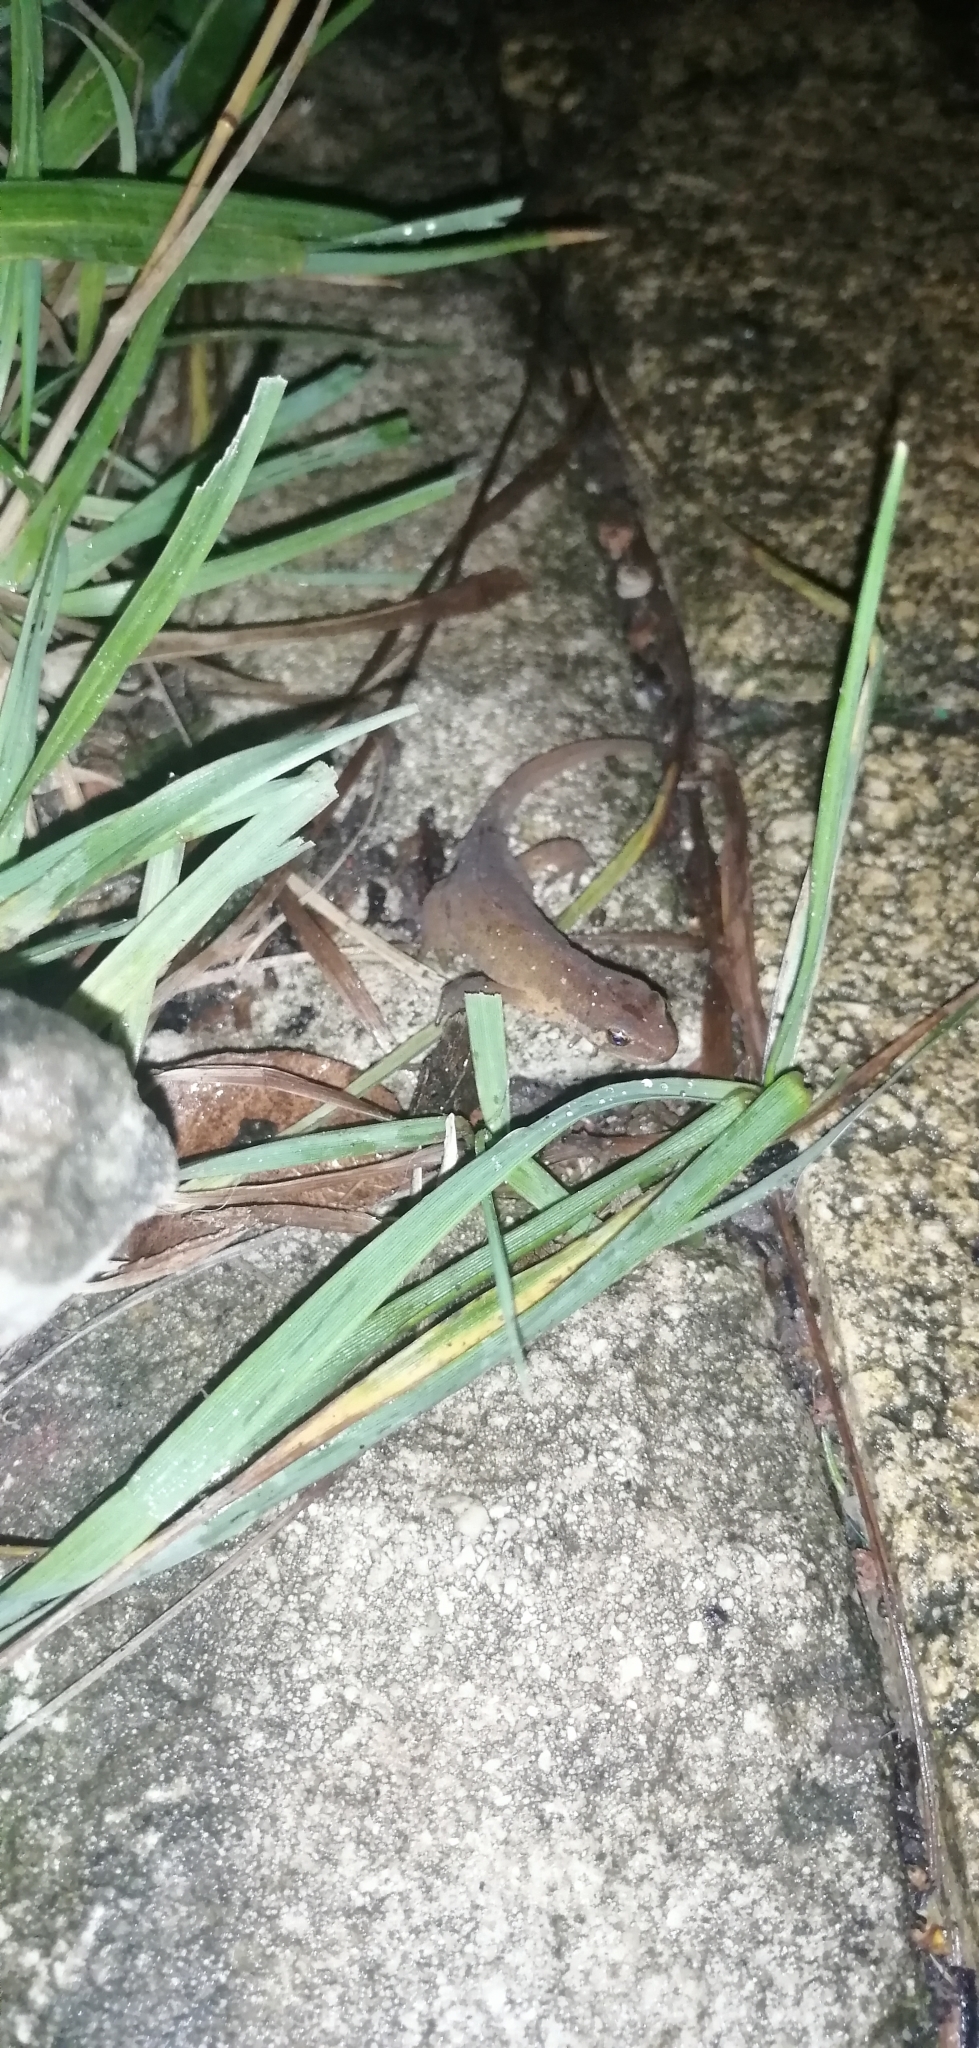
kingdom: Animalia
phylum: Chordata
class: Amphibia
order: Caudata
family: Salamandridae
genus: Lissotriton
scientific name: Lissotriton helveticus
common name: Palmate newt
